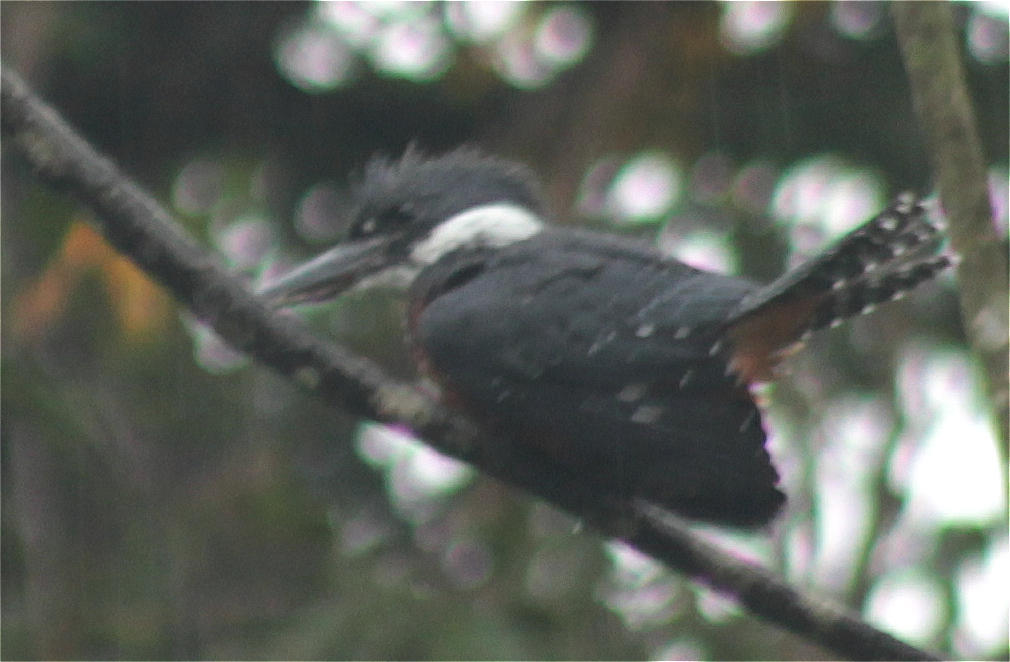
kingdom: Animalia
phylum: Chordata
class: Aves
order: Coraciiformes
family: Alcedinidae
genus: Megaceryle
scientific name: Megaceryle torquata
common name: Ringed kingfisher
